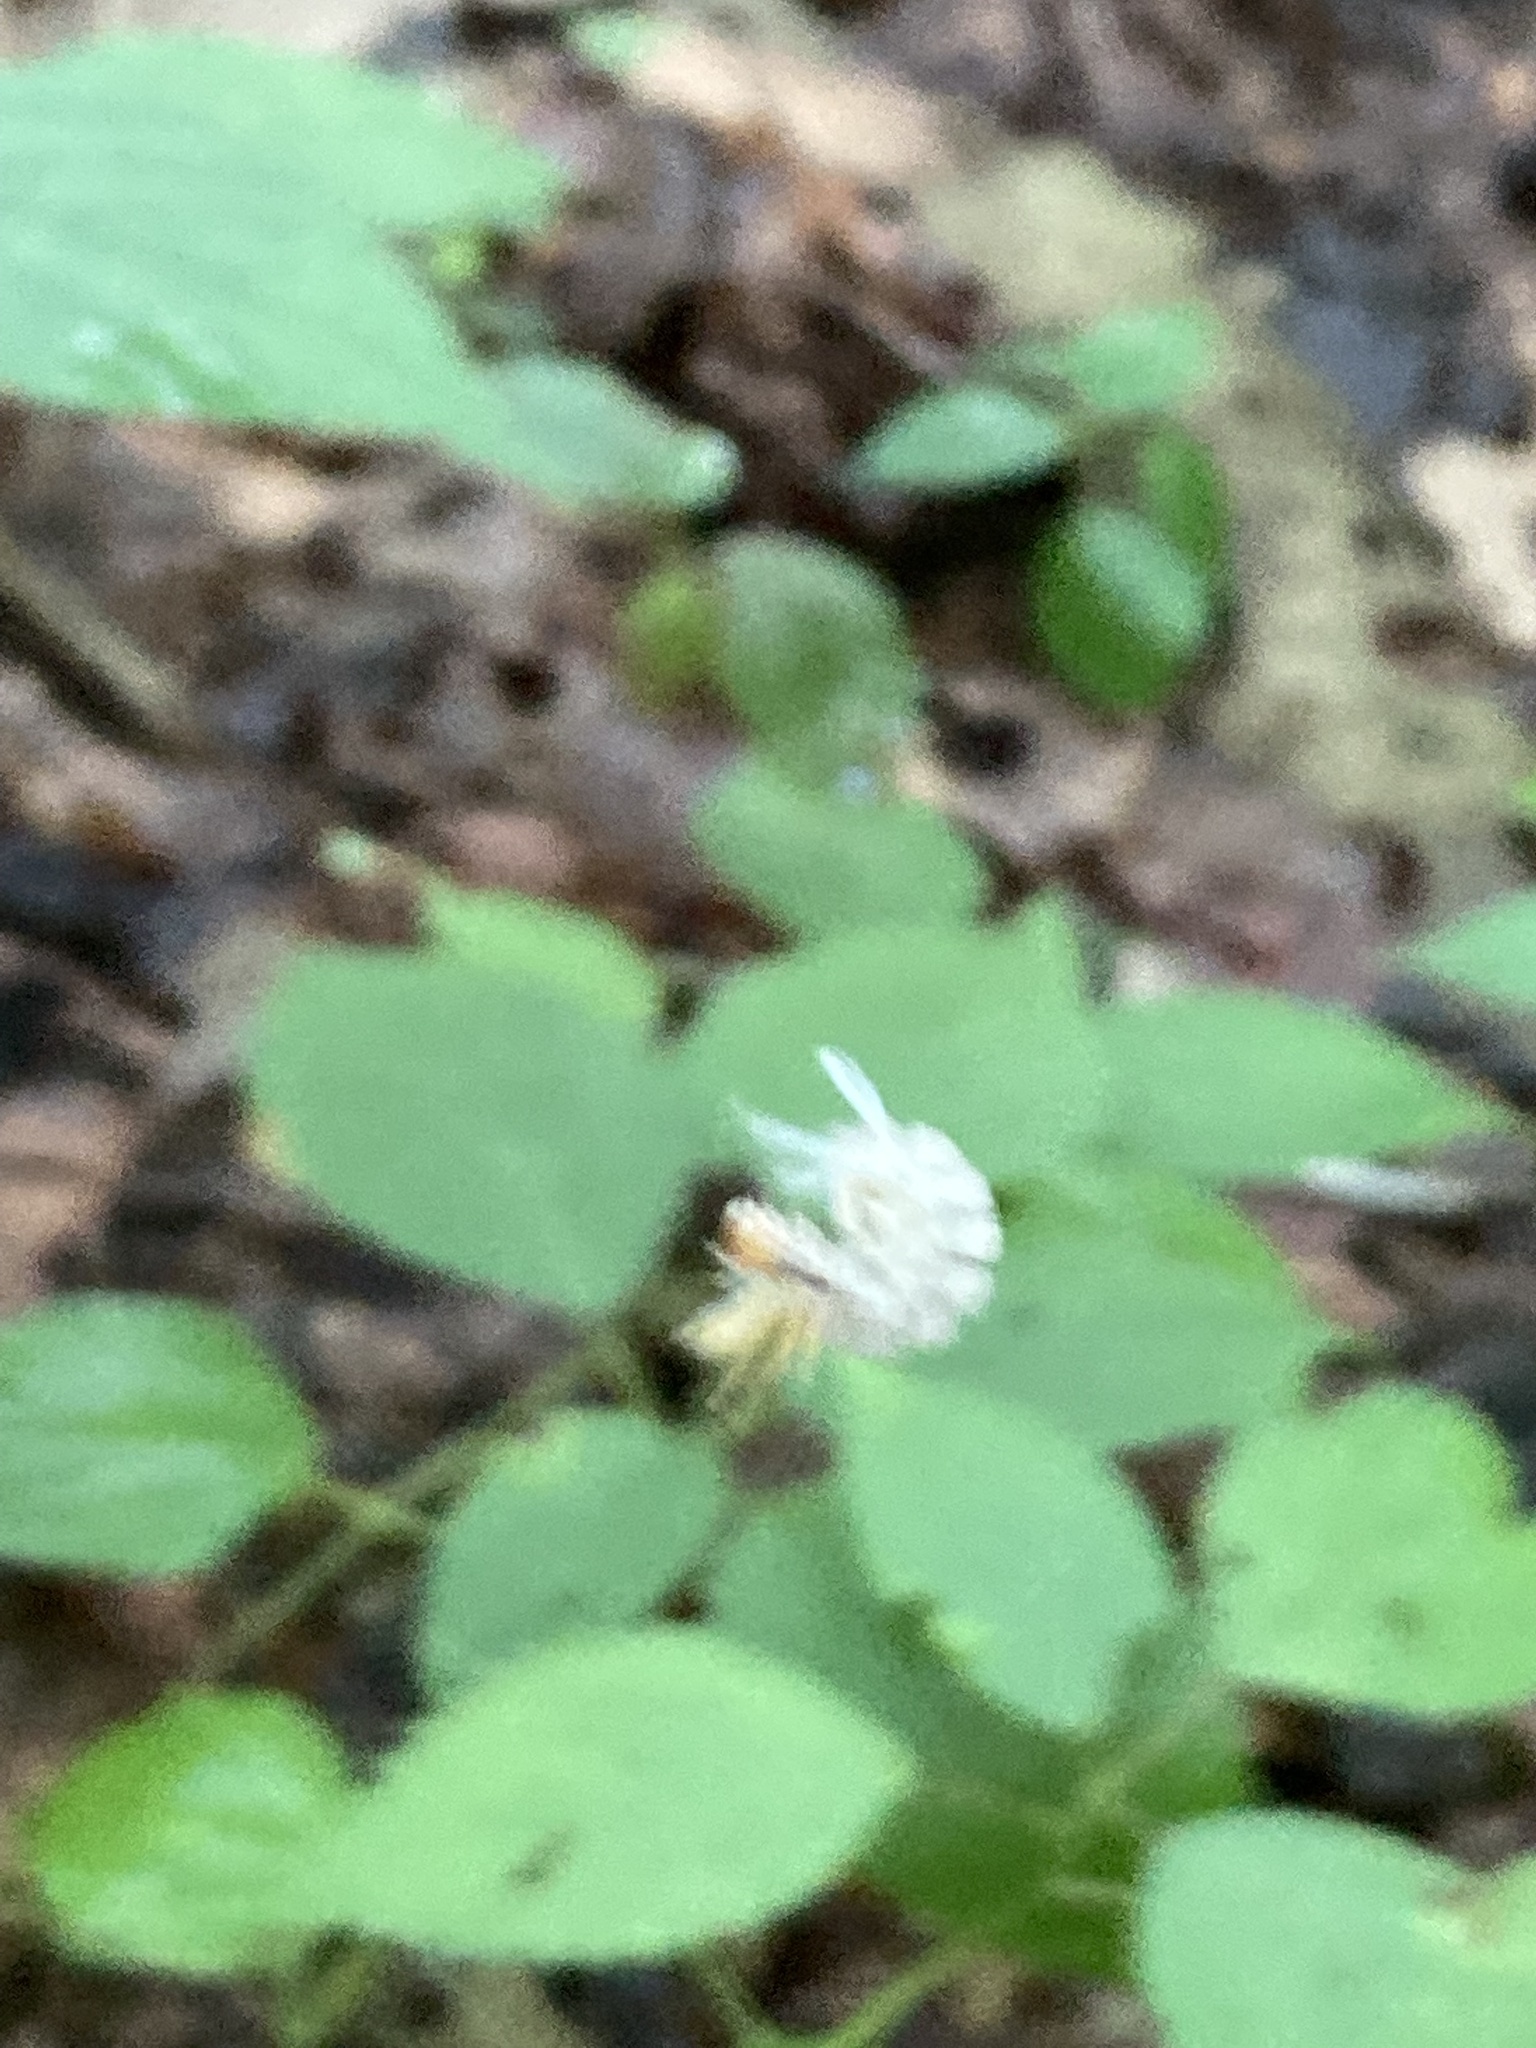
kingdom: Animalia
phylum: Arthropoda
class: Insecta
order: Lepidoptera
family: Erebidae
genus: Halysidota
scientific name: Halysidota harrisii
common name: Sycamore tussock moth
